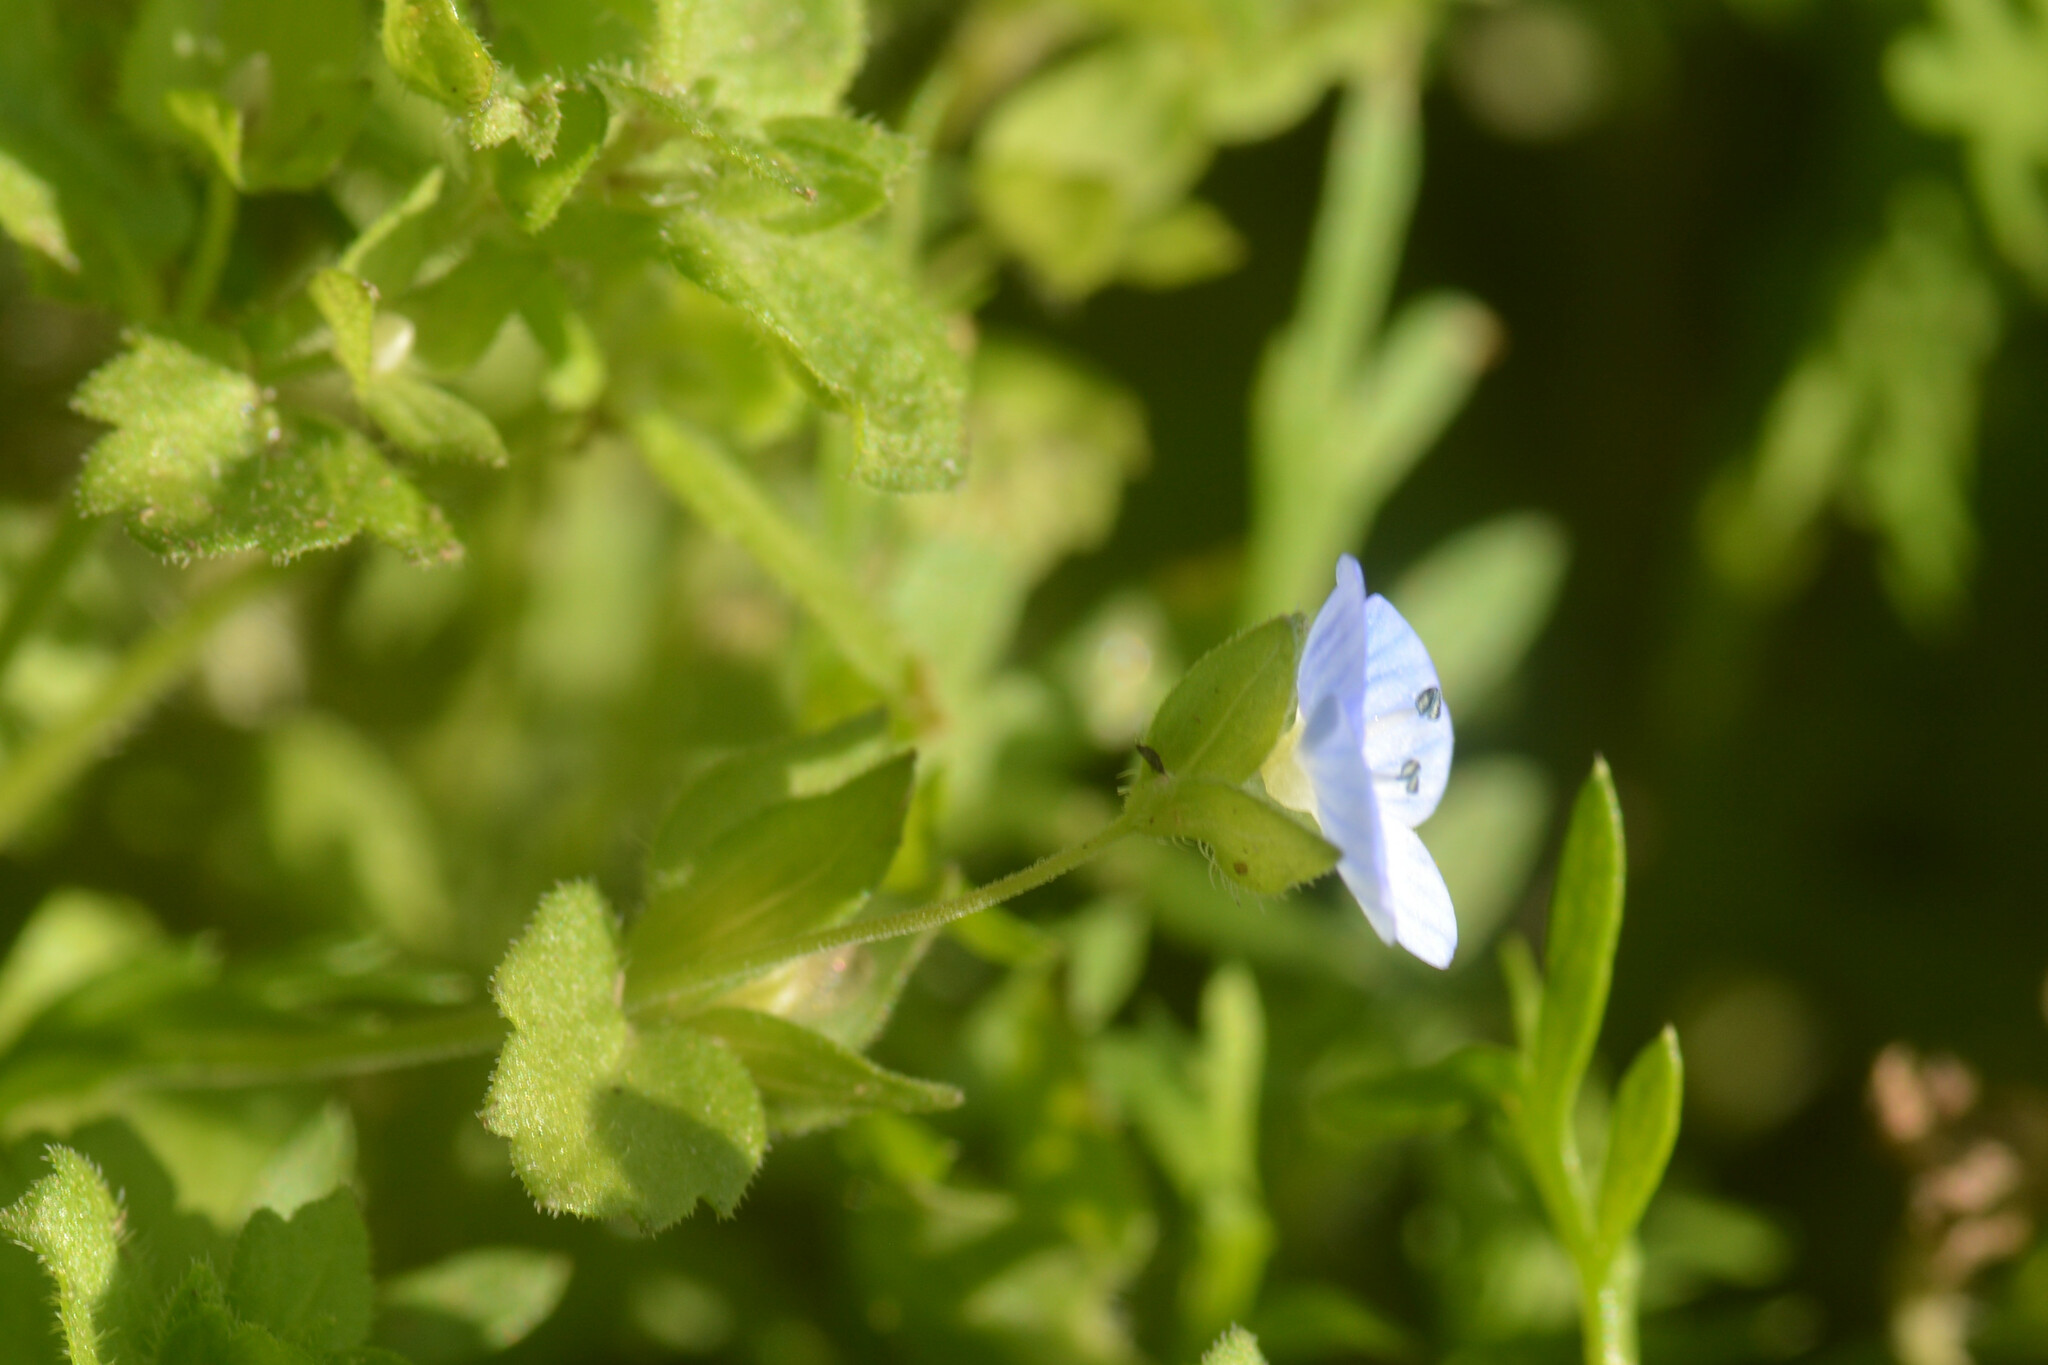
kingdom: Plantae
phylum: Tracheophyta
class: Magnoliopsida
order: Lamiales
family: Plantaginaceae
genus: Veronica
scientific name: Veronica persica
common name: Common field-speedwell
